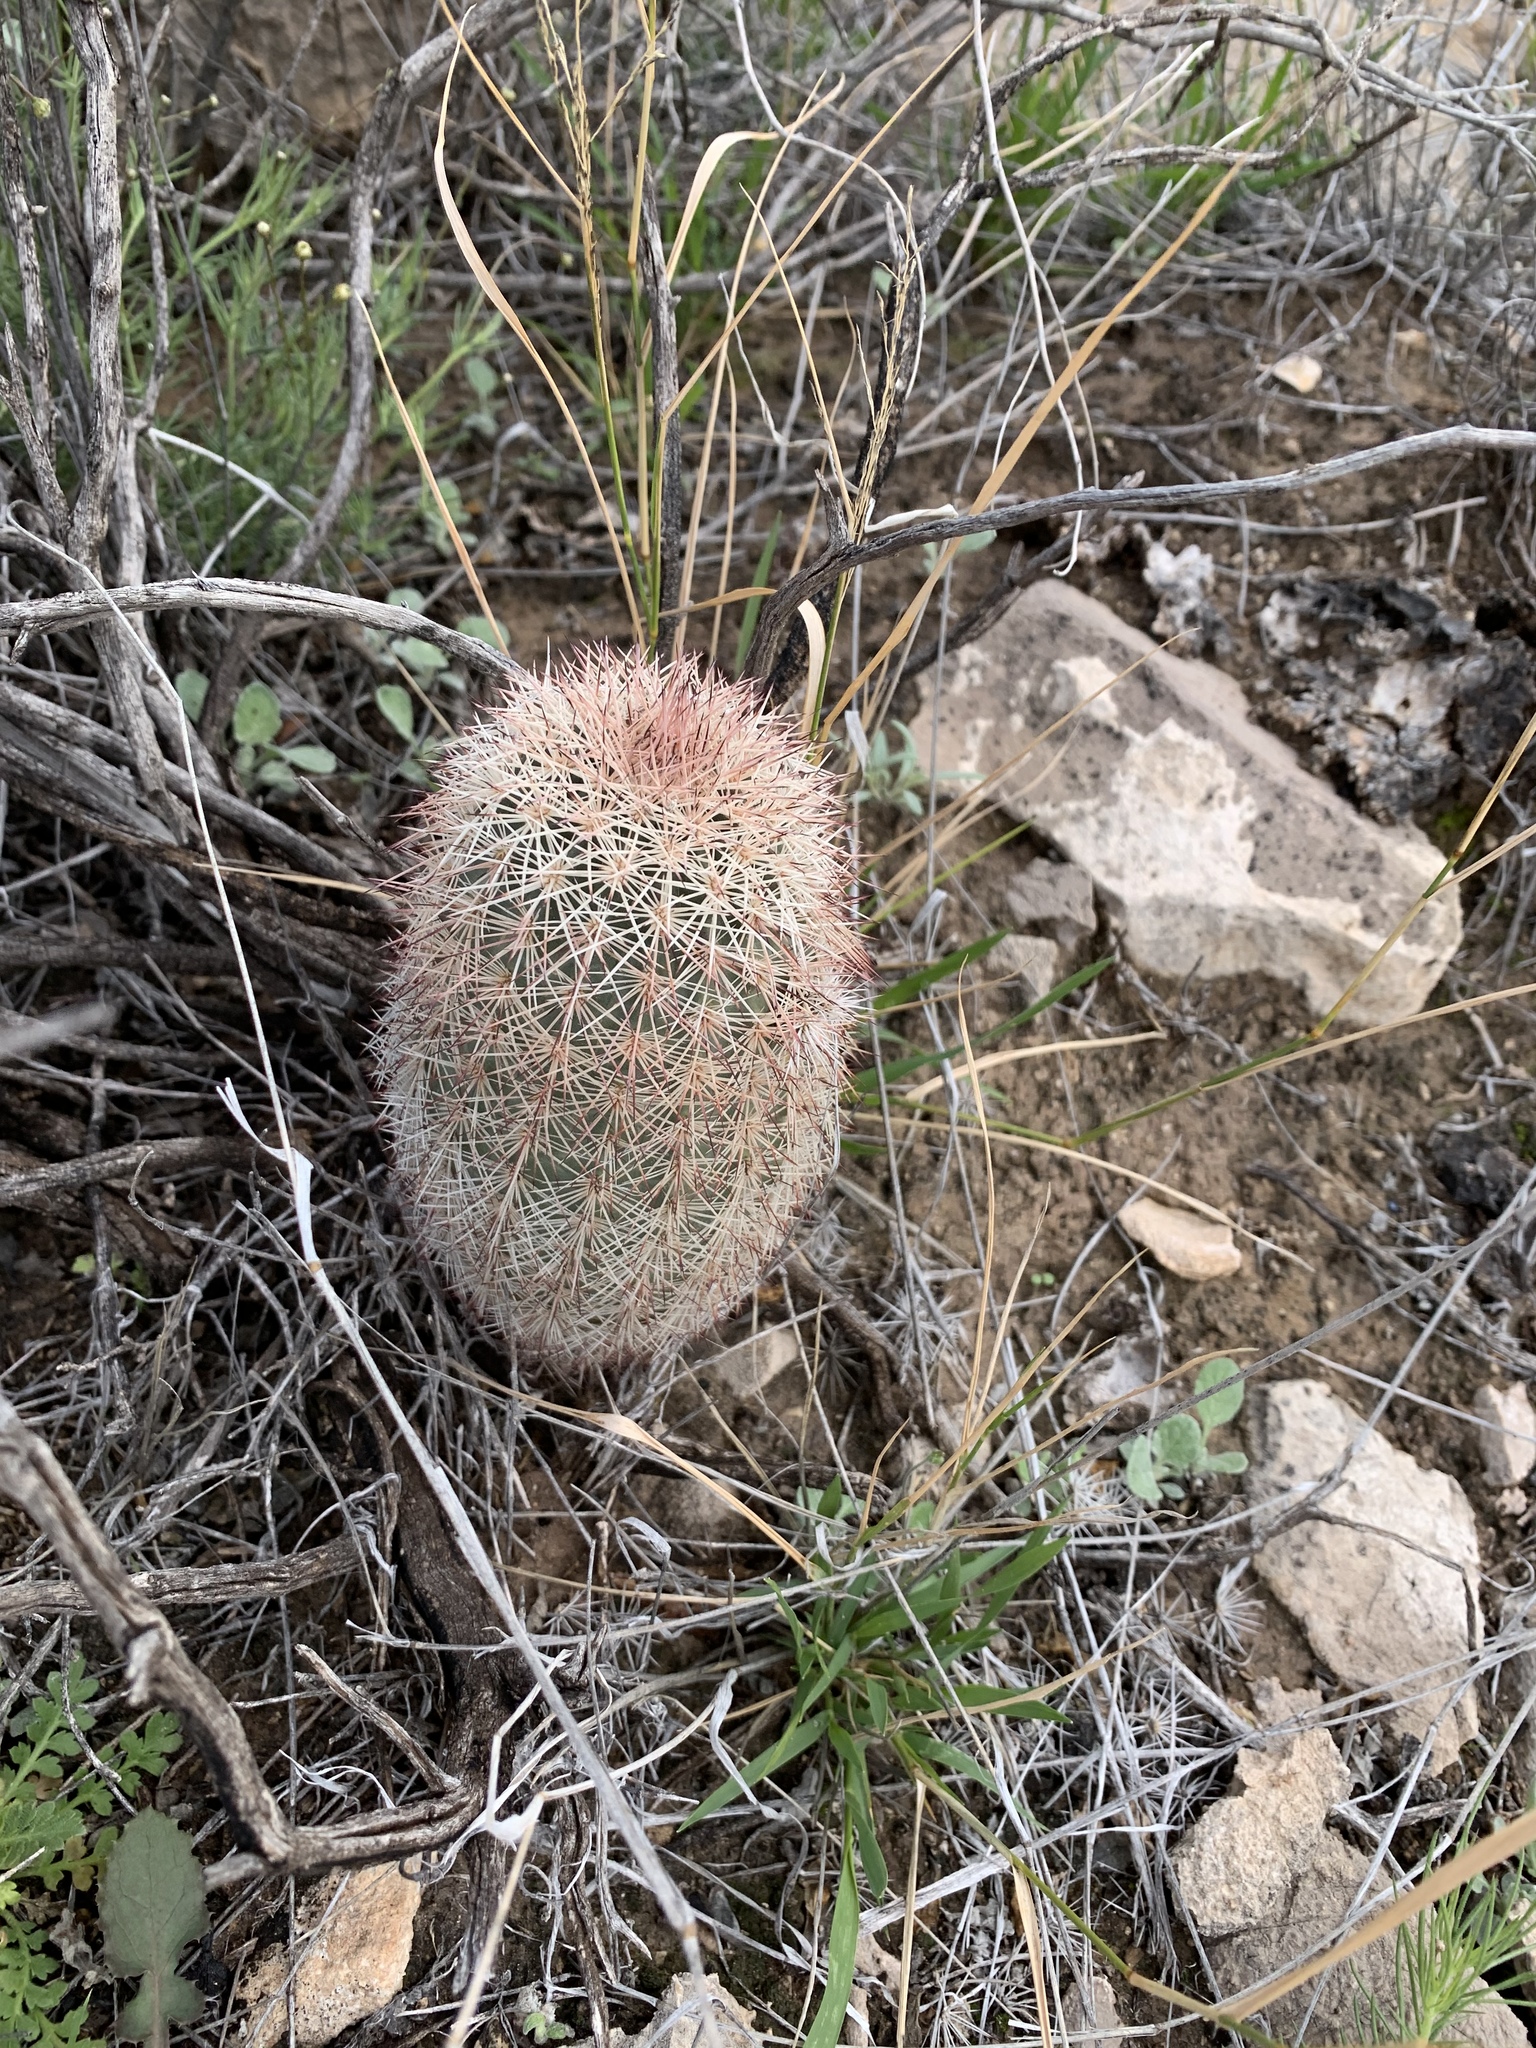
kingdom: Plantae
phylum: Tracheophyta
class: Magnoliopsida
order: Caryophyllales
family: Cactaceae
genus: Echinocereus
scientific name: Echinocereus dasyacanthus
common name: Spiny hedgehog cactus
